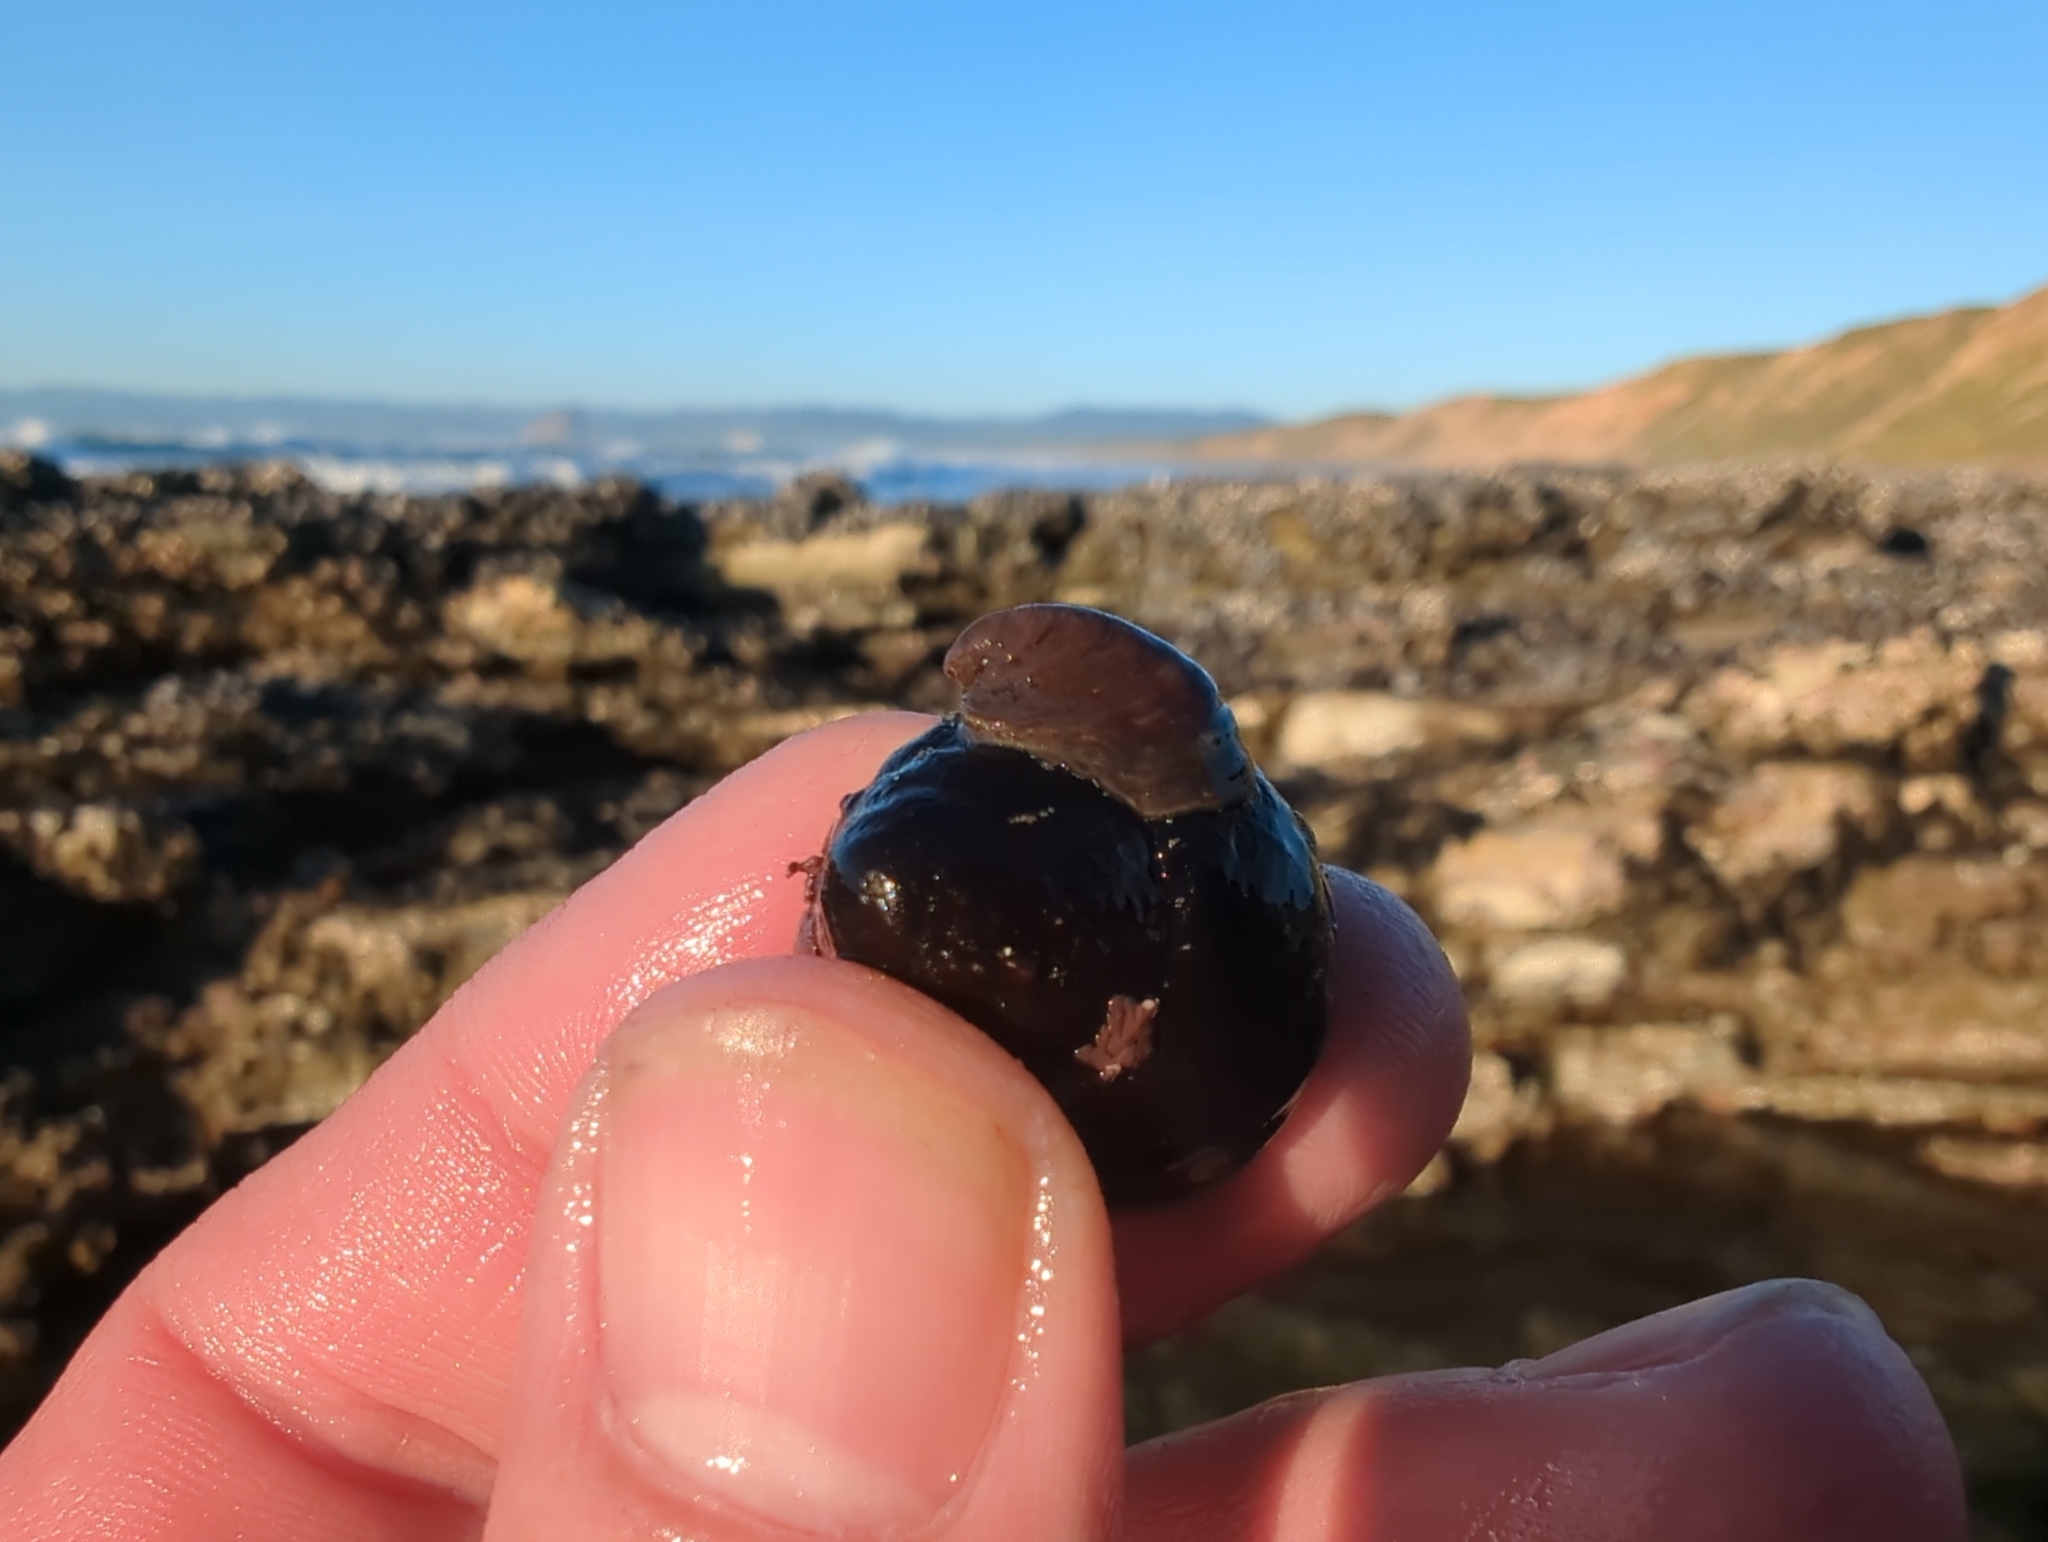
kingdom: Animalia
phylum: Mollusca
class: Gastropoda
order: Littorinimorpha
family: Calyptraeidae
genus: Crepidula
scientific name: Crepidula adunca
